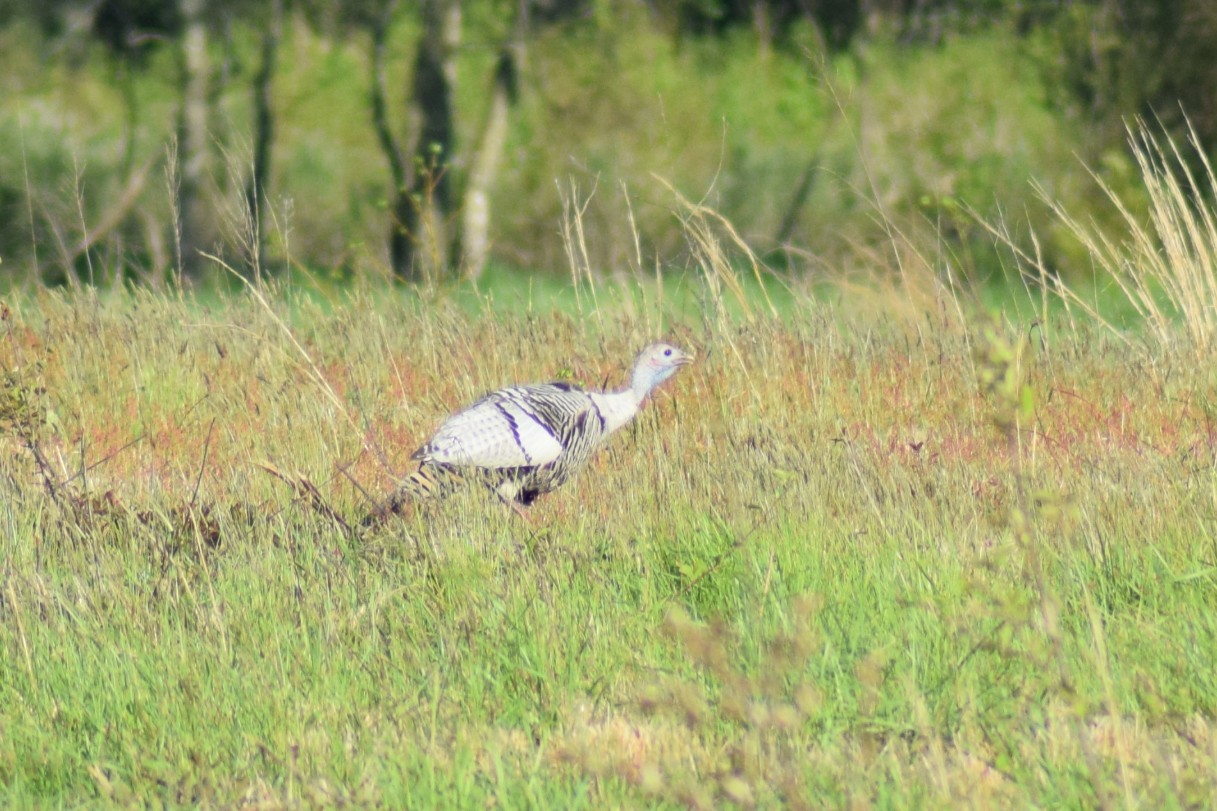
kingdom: Animalia
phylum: Chordata
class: Aves
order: Galliformes
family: Phasianidae
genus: Meleagris
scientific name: Meleagris gallopavo
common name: Wild turkey
